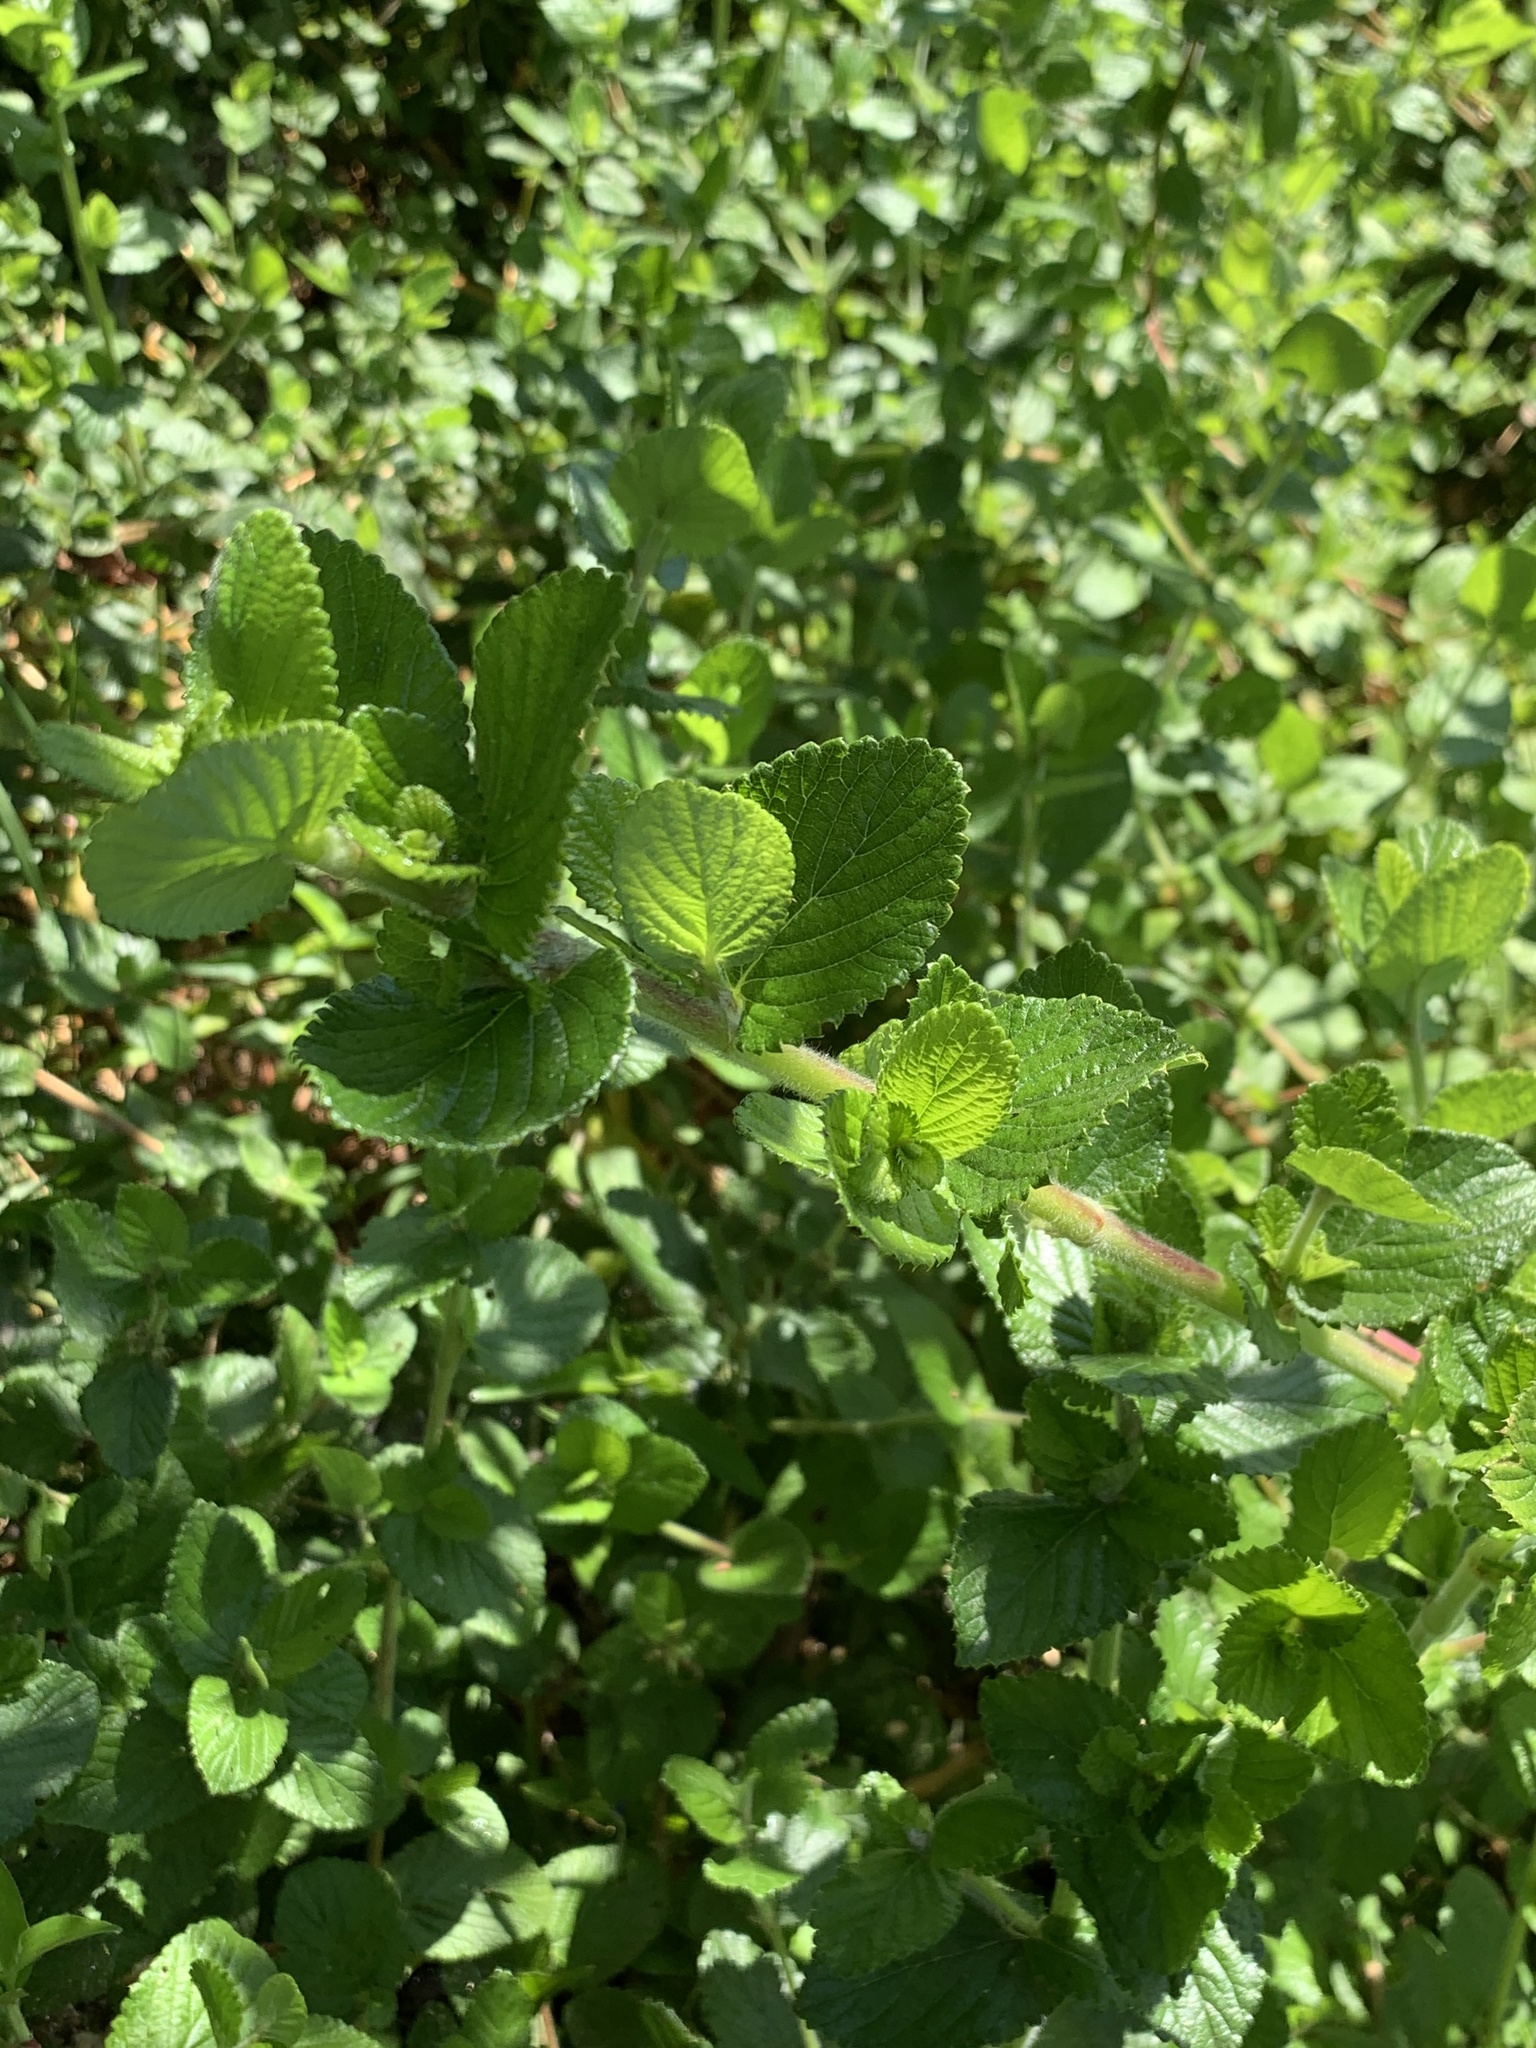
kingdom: Plantae
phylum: Tracheophyta
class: Magnoliopsida
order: Rosales
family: Rosaceae
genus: Cliffortia
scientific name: Cliffortia odorata
